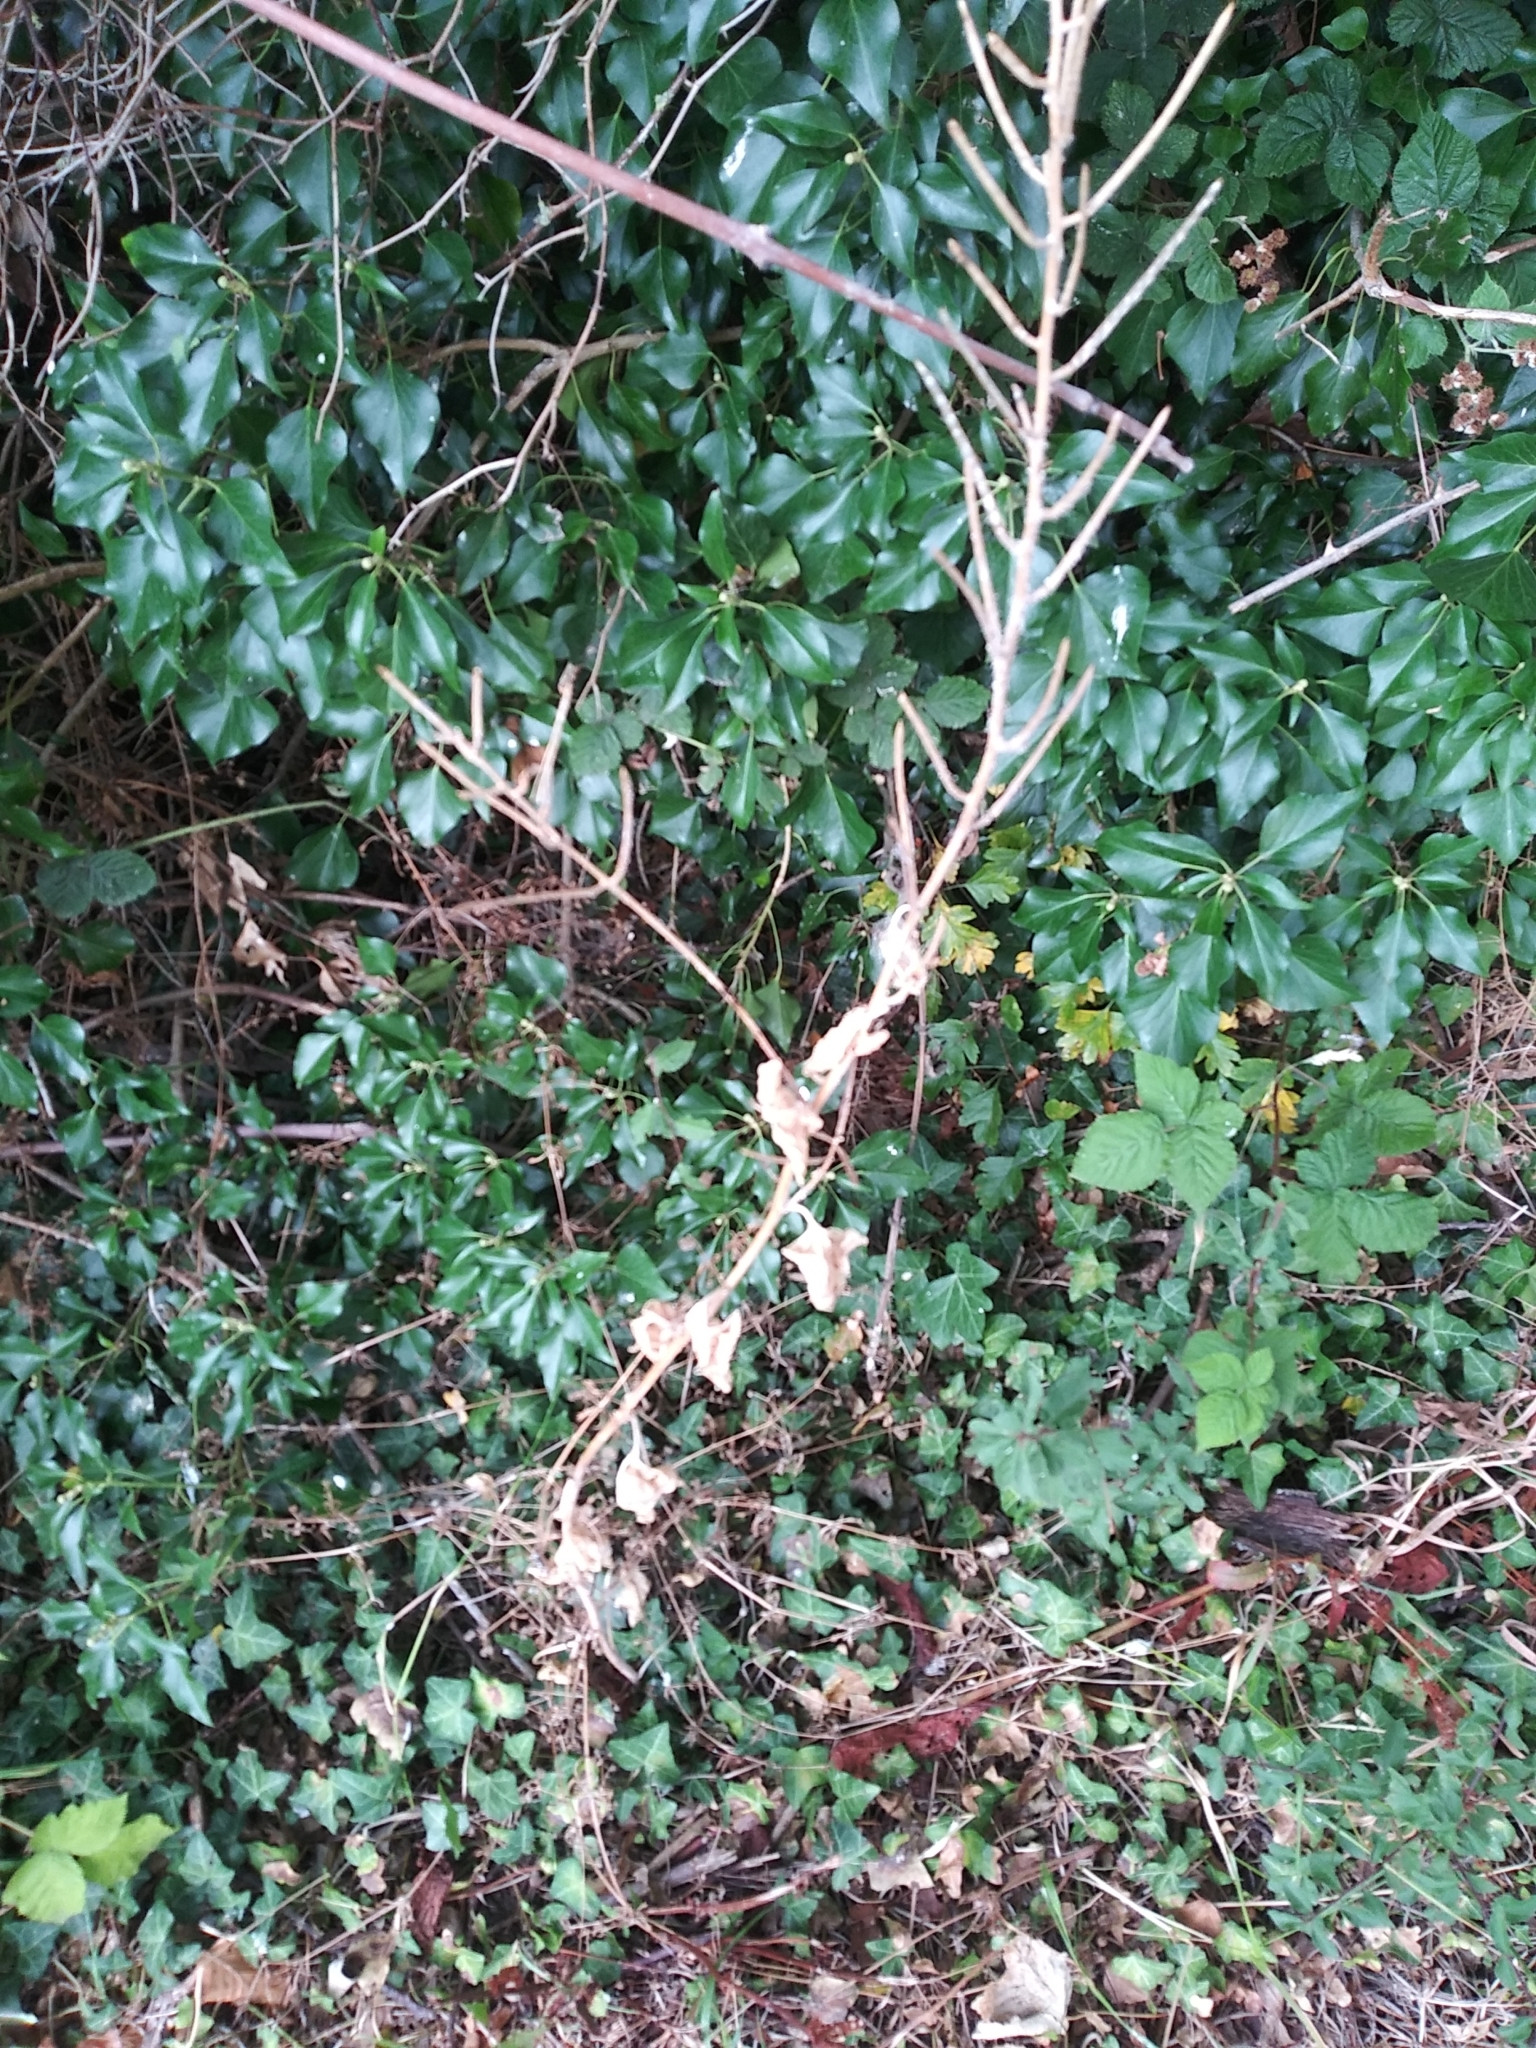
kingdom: Plantae
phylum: Tracheophyta
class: Magnoliopsida
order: Brassicales
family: Brassicaceae
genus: Alliaria
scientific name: Alliaria petiolata
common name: Garlic mustard
